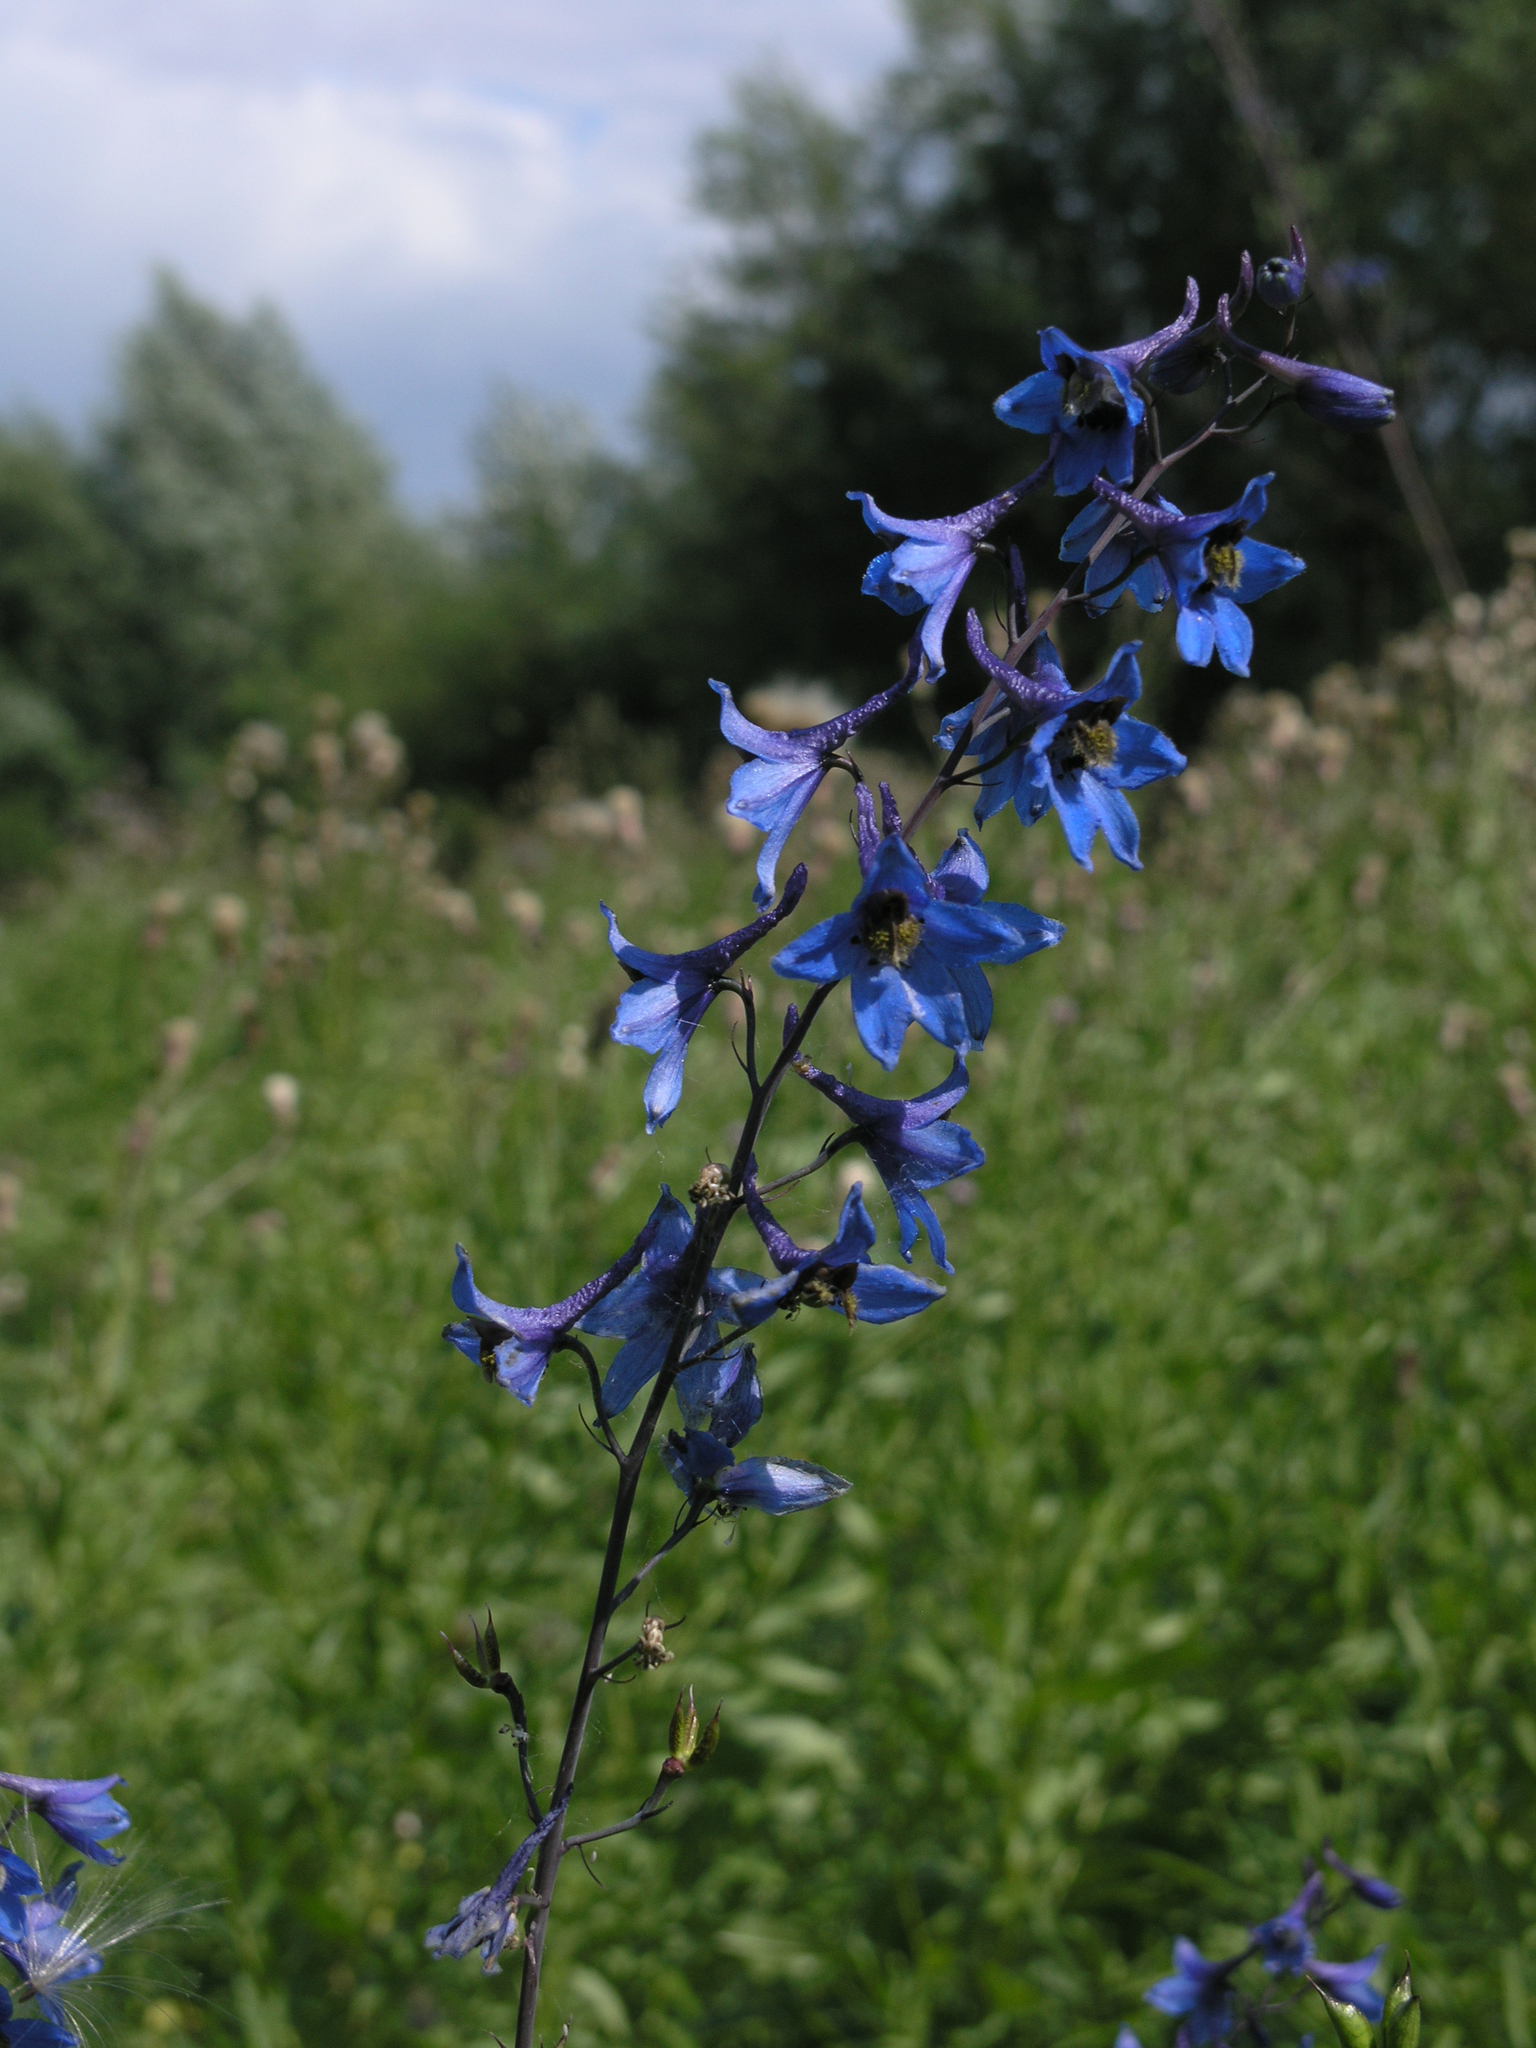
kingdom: Plantae
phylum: Tracheophyta
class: Magnoliopsida
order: Ranunculales
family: Ranunculaceae
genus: Delphinium
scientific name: Delphinium elatum
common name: Candle larkspur
